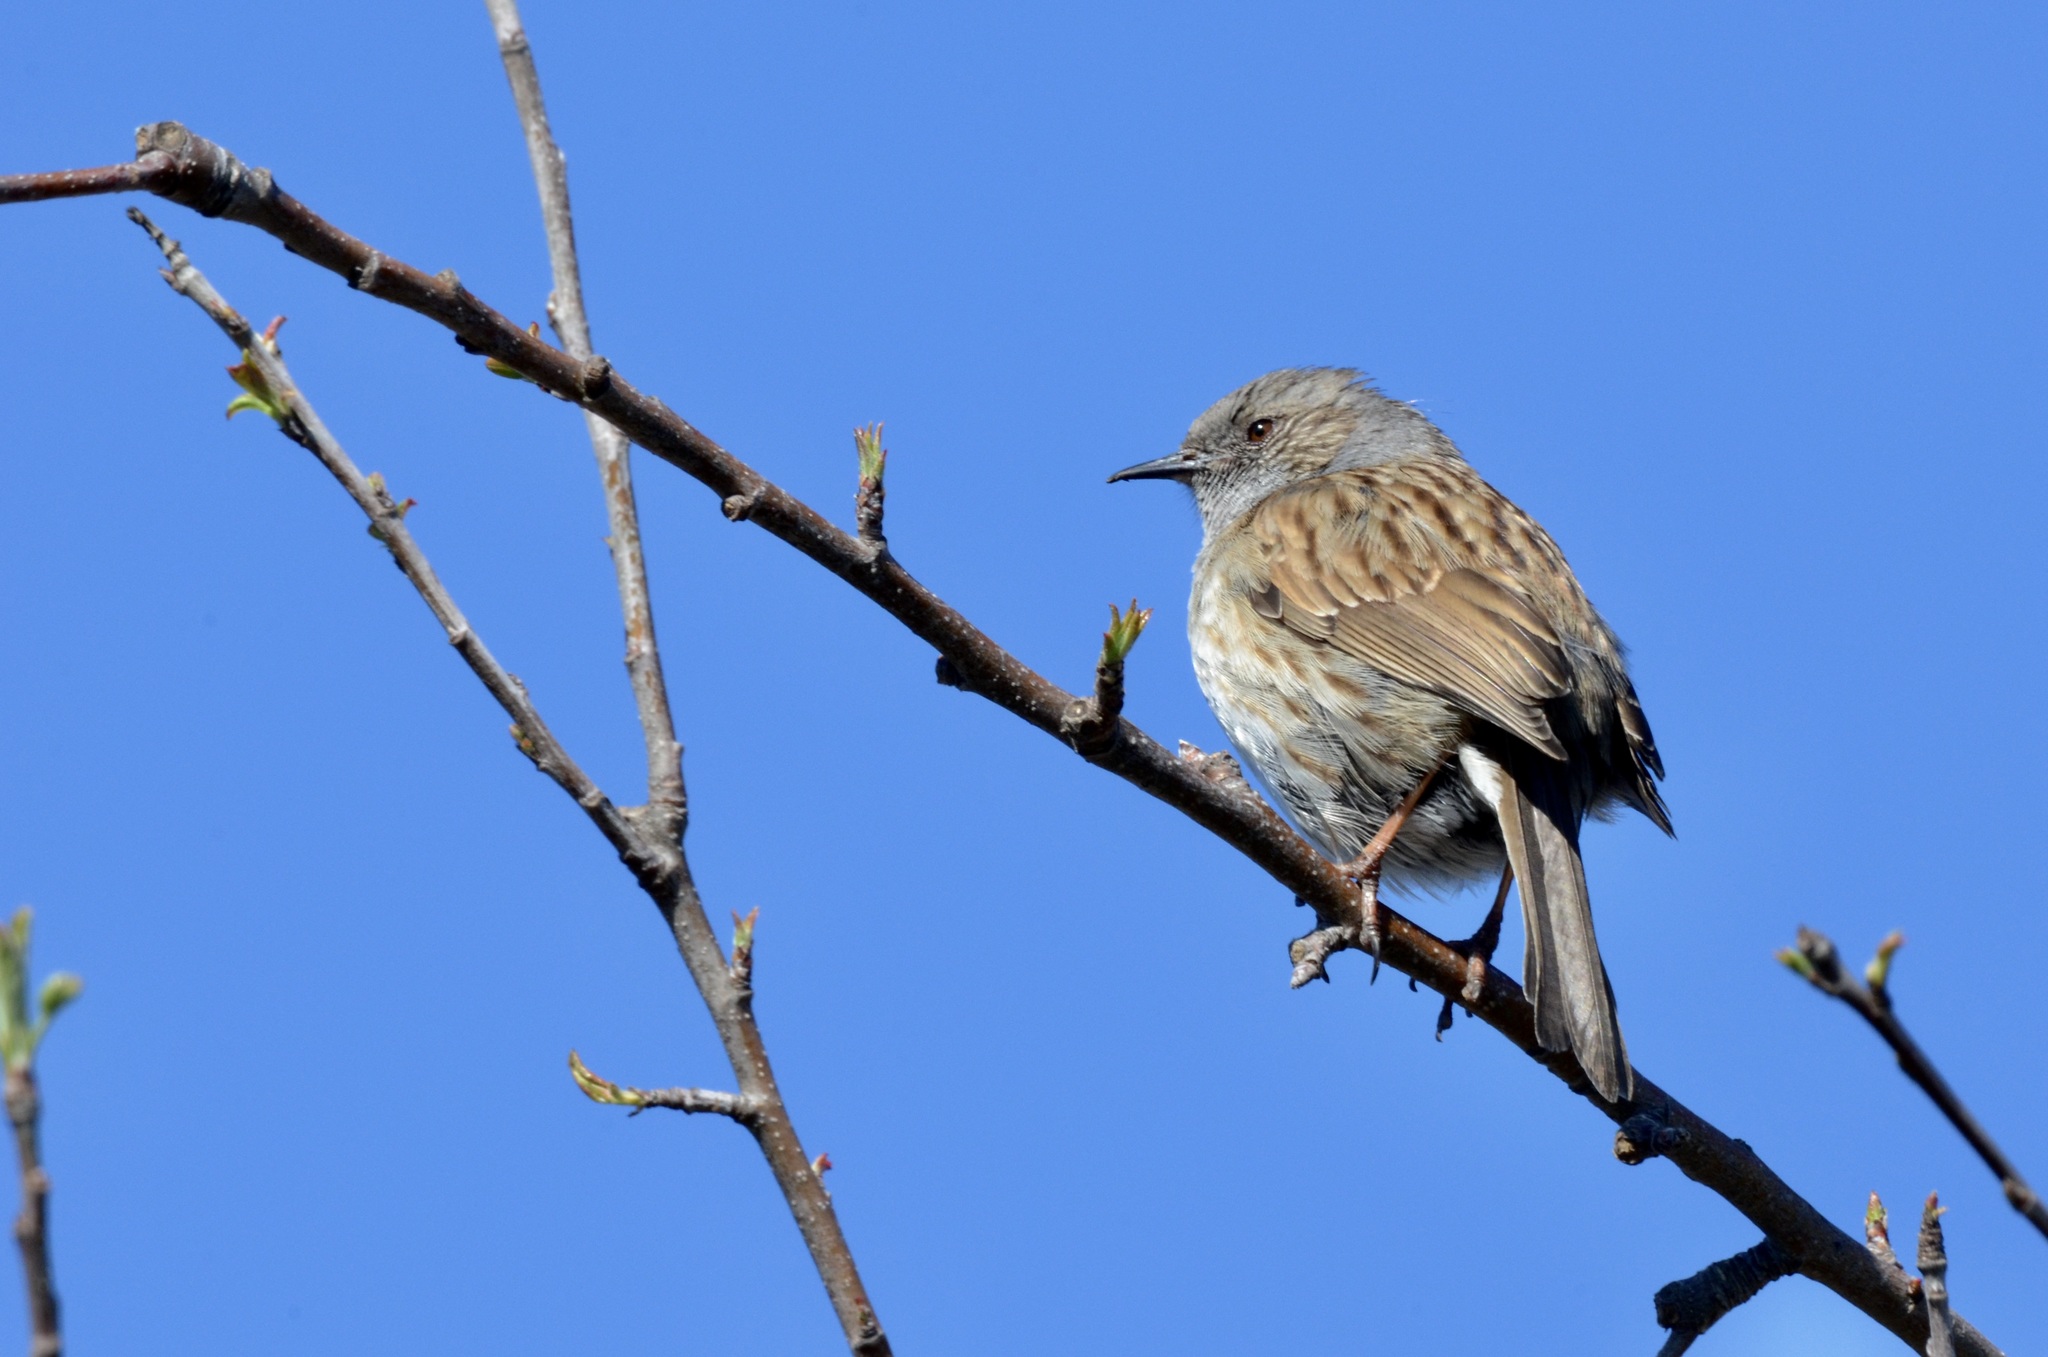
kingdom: Animalia
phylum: Chordata
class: Aves
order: Passeriformes
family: Prunellidae
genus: Prunella
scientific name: Prunella modularis
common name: Dunnock
